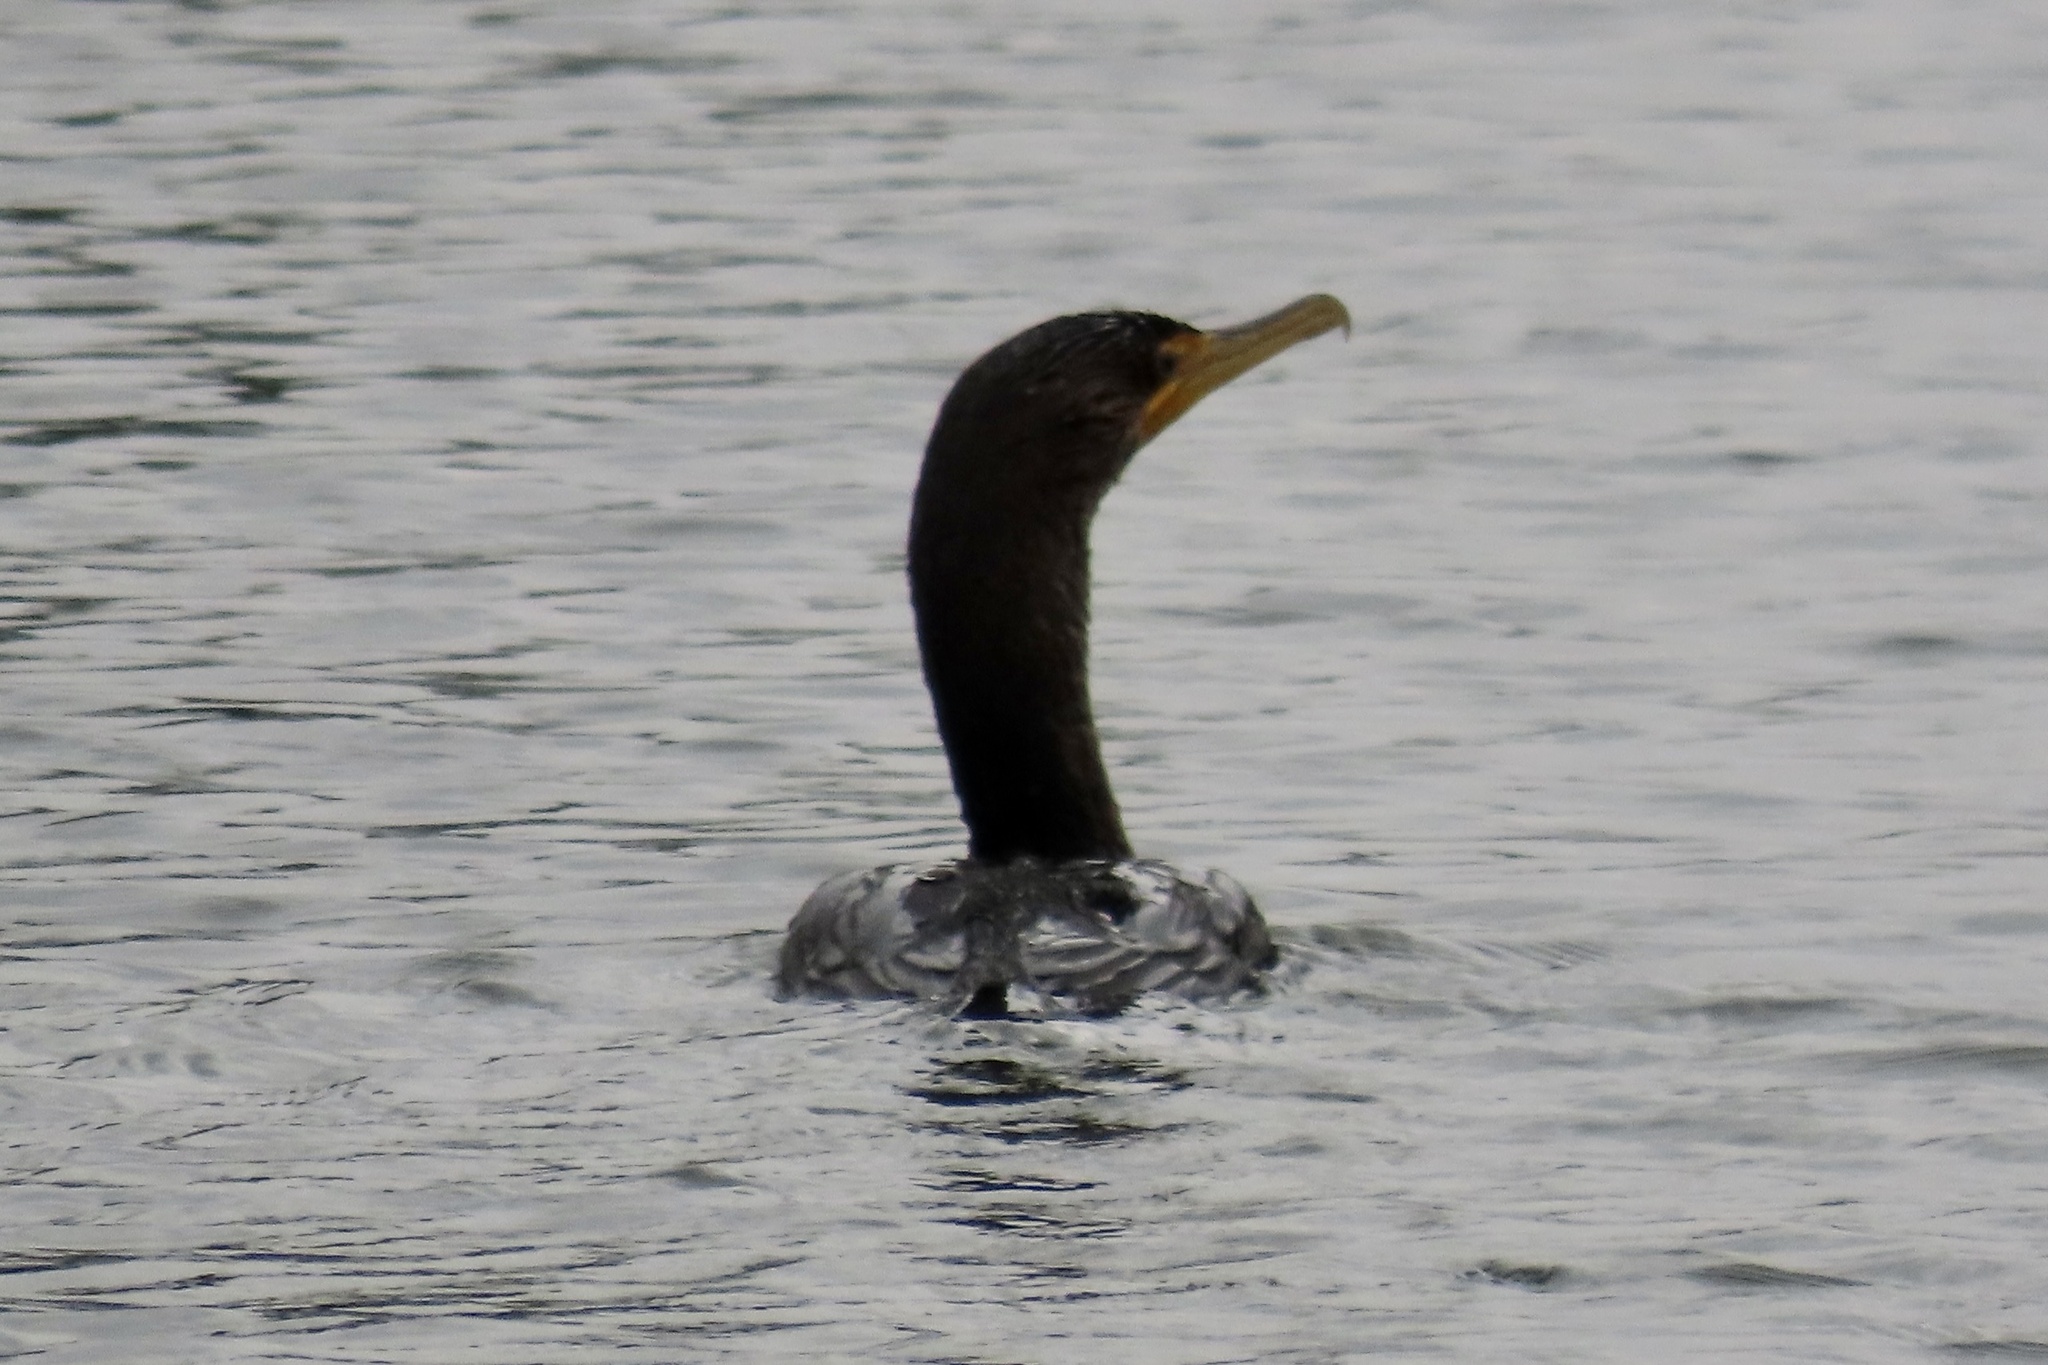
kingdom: Animalia
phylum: Chordata
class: Aves
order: Suliformes
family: Phalacrocoracidae
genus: Phalacrocorax
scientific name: Phalacrocorax auritus
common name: Double-crested cormorant
